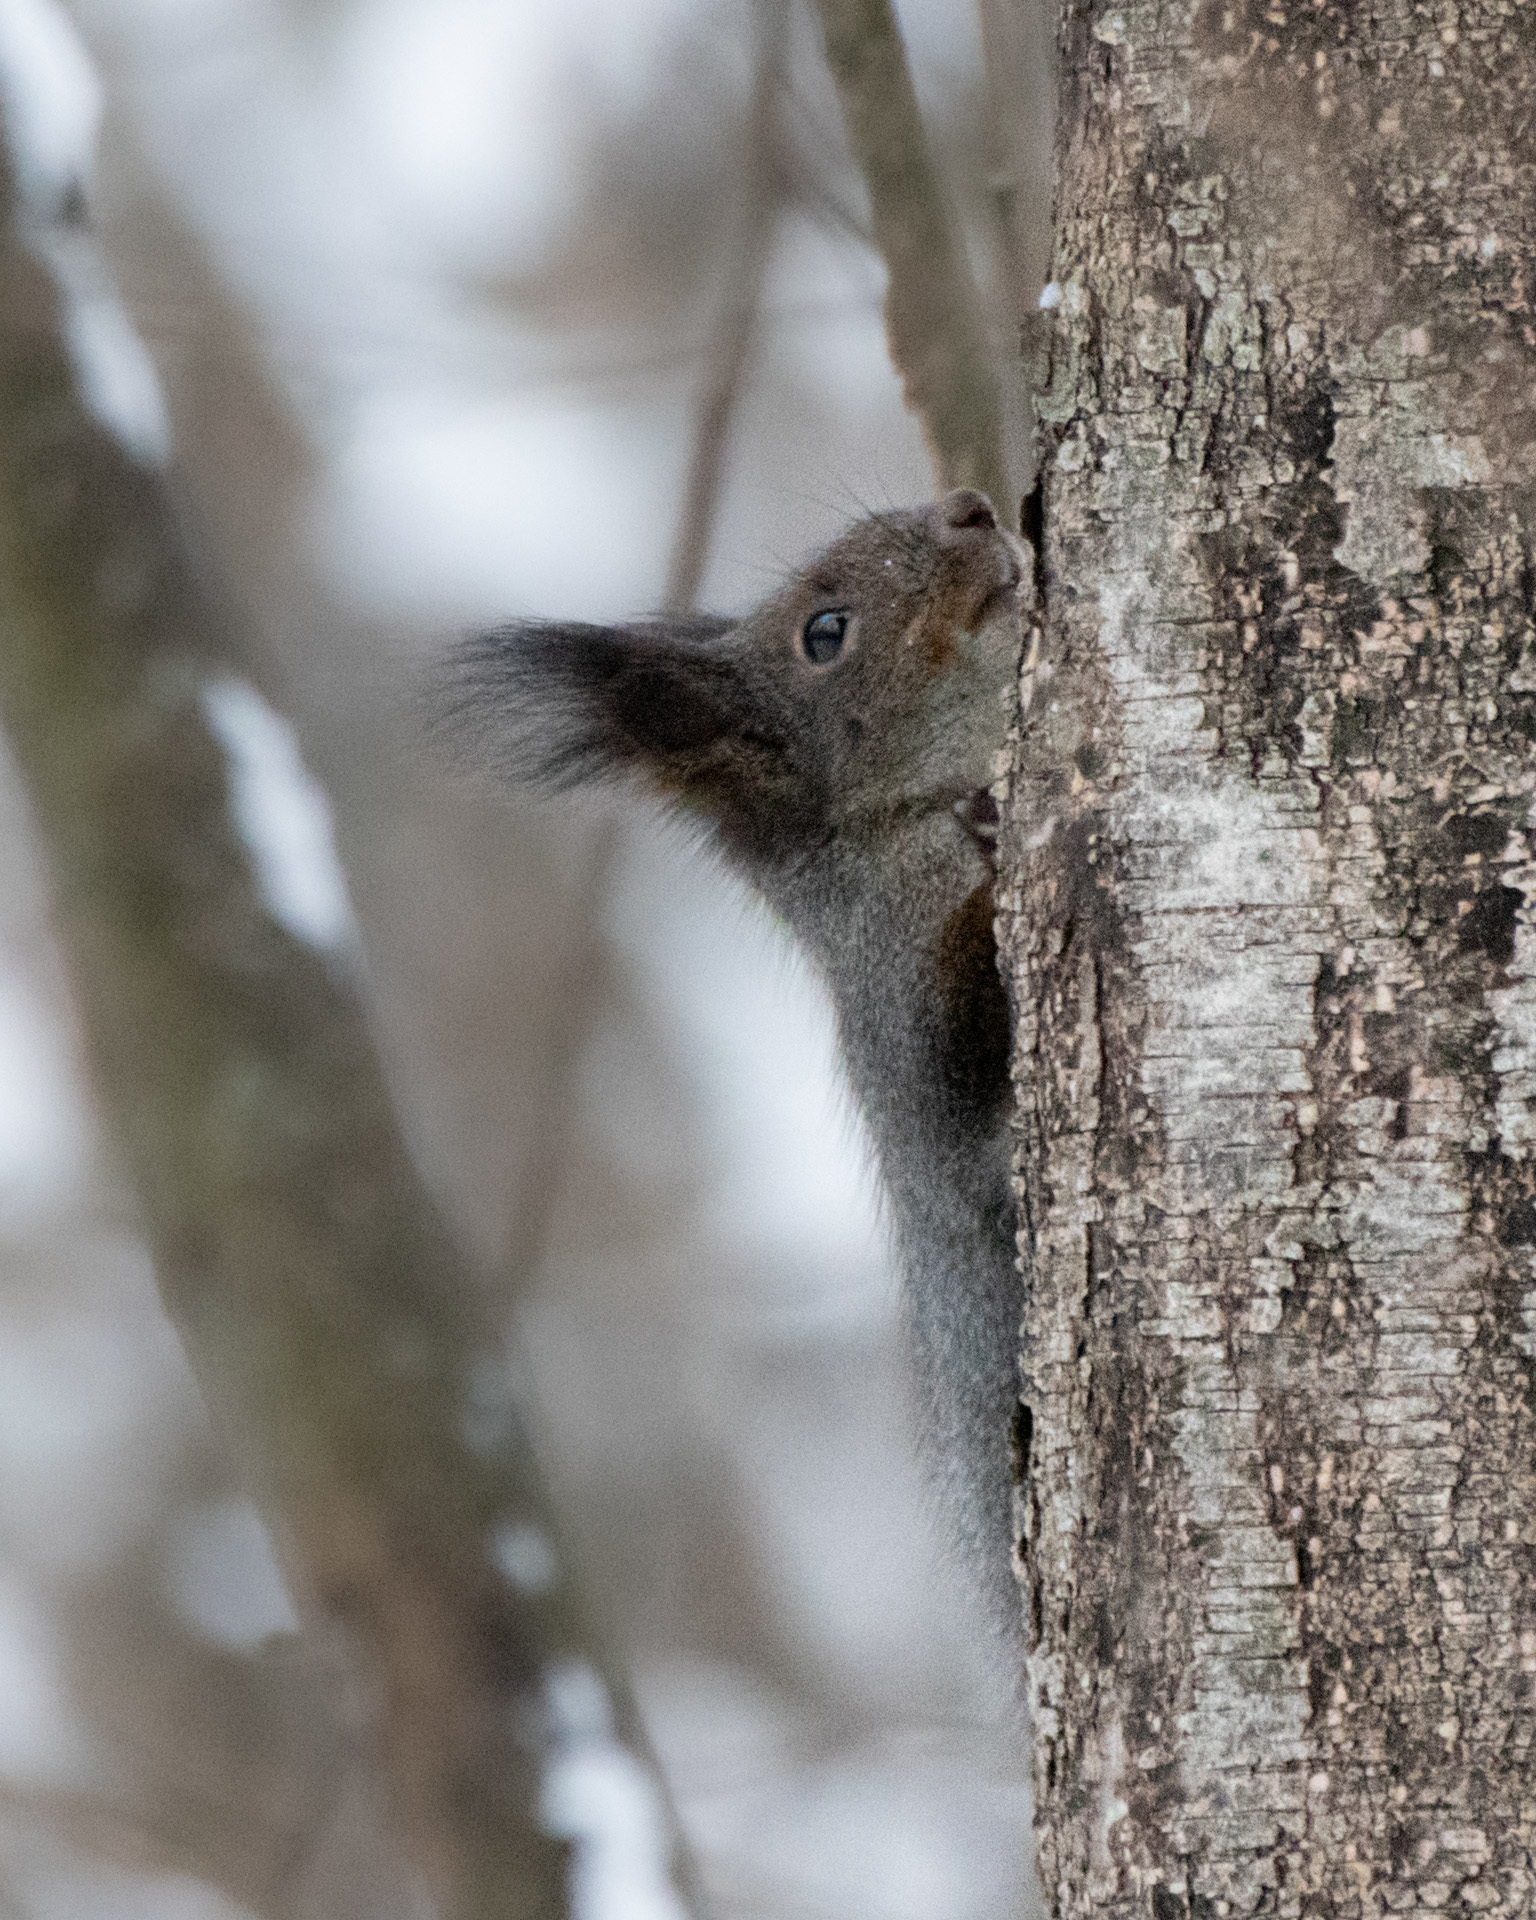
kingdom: Animalia
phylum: Chordata
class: Mammalia
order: Rodentia
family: Sciuridae
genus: Sciurus
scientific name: Sciurus vulgaris
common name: Eurasian red squirrel
